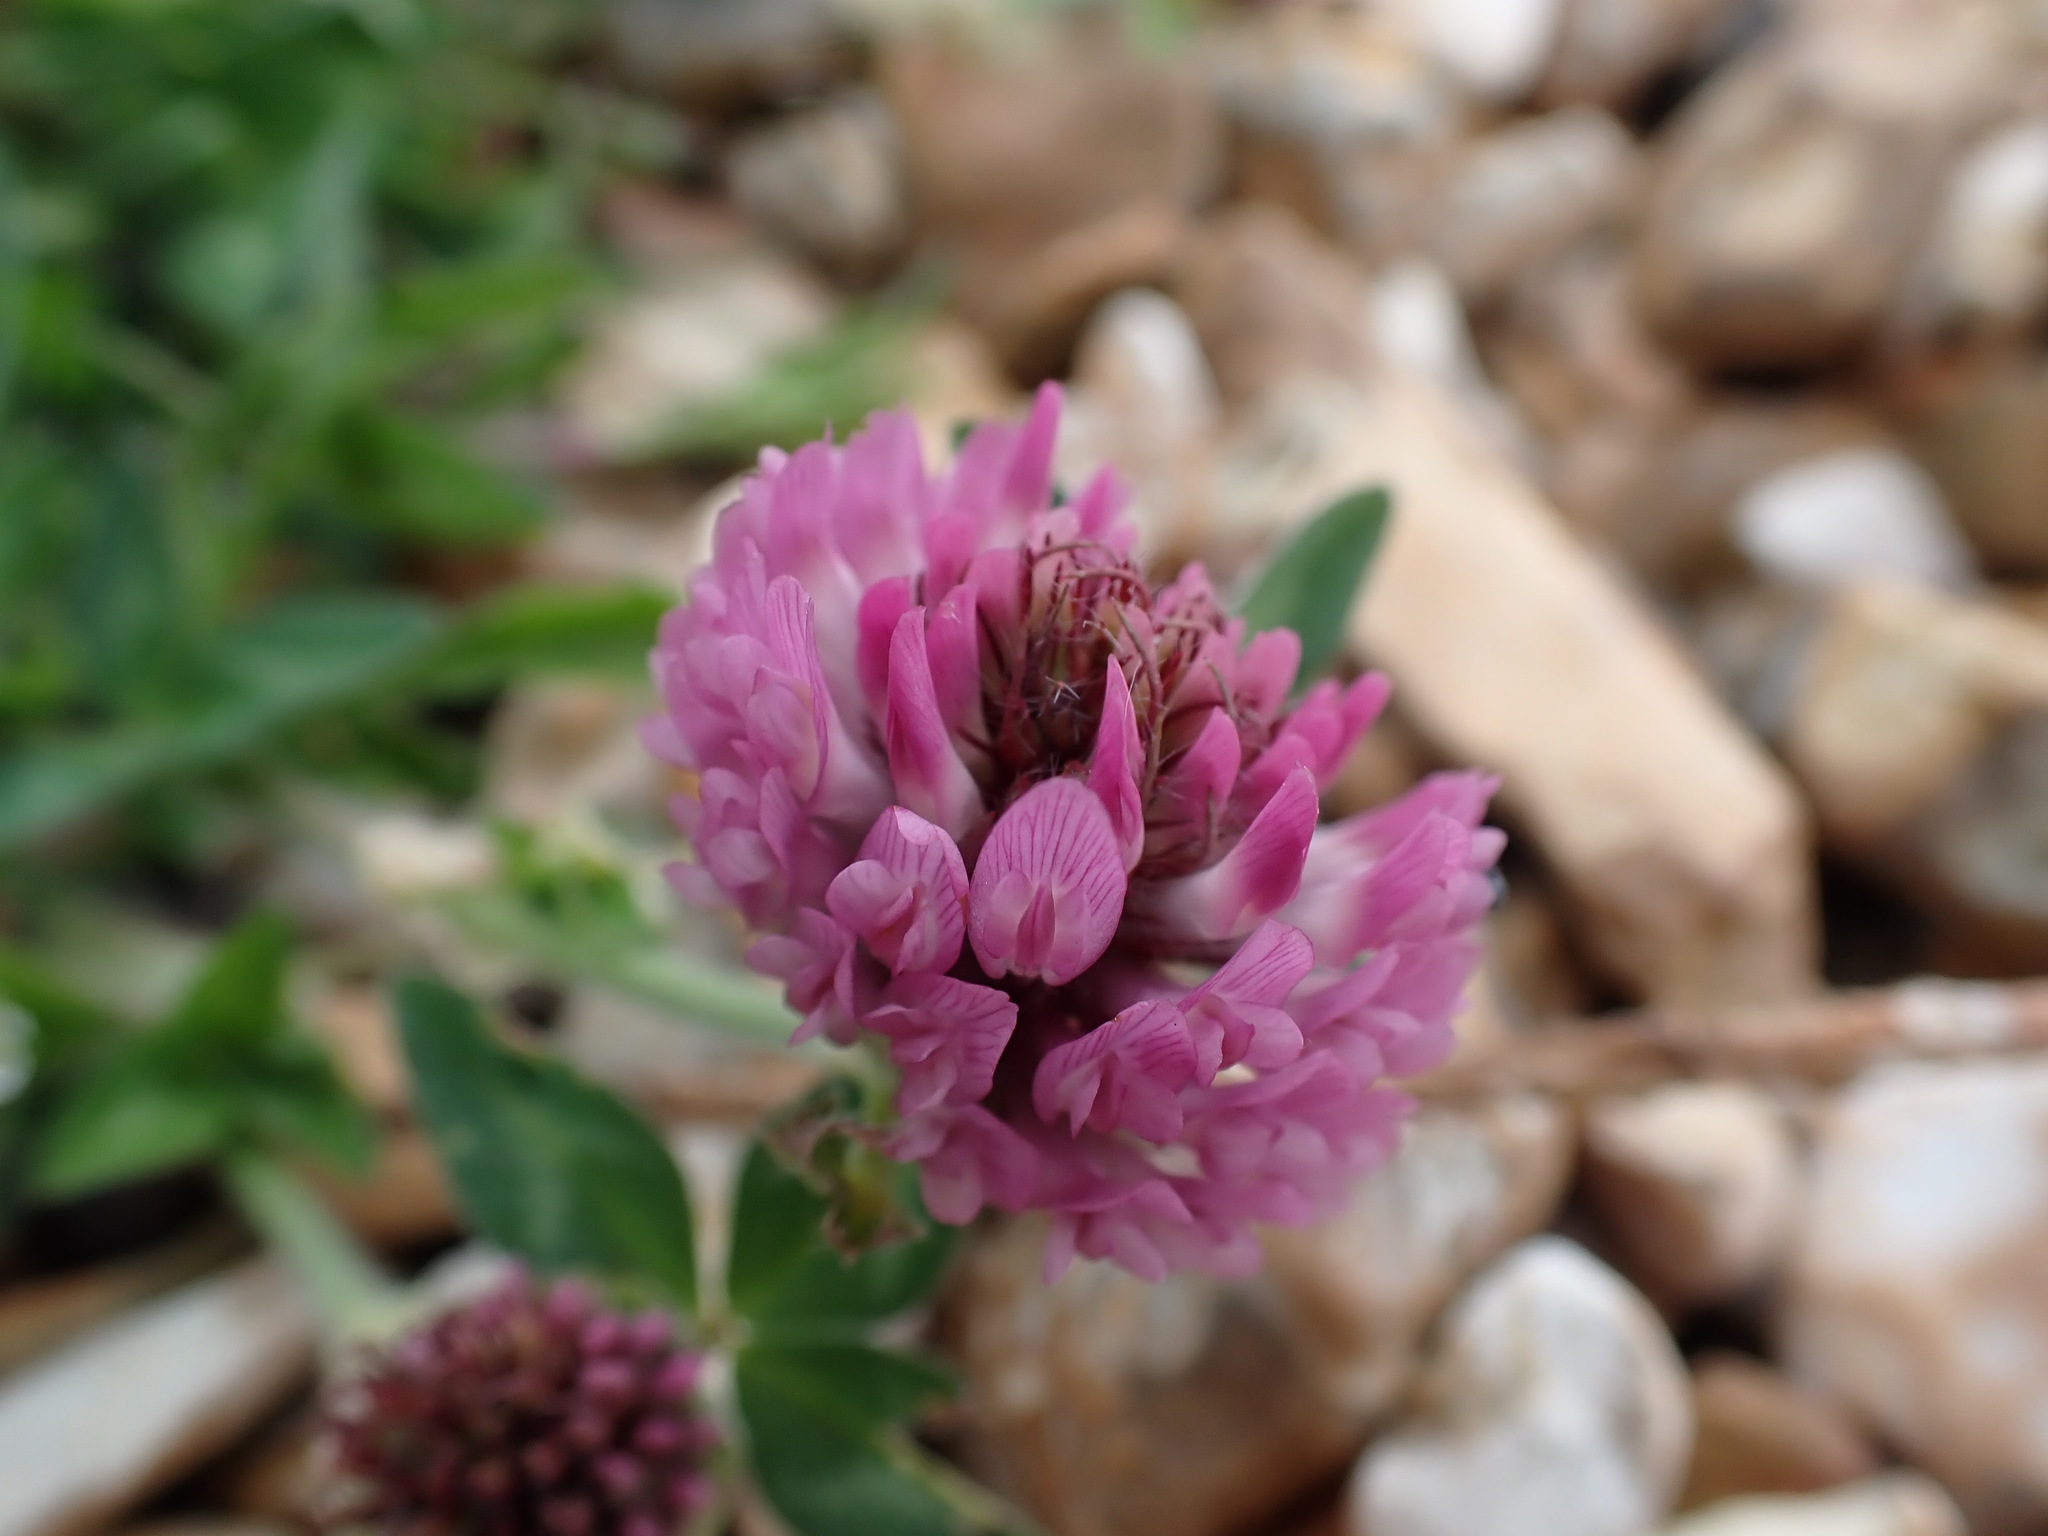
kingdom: Plantae
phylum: Tracheophyta
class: Magnoliopsida
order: Fabales
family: Fabaceae
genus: Trifolium
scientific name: Trifolium pratense
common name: Red clover
